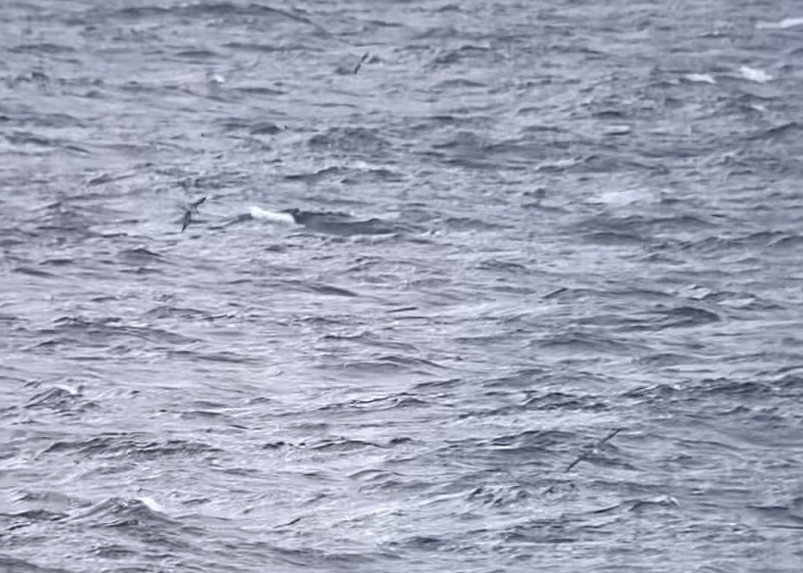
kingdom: Animalia
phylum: Chordata
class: Aves
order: Procellariiformes
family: Procellariidae
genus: Calonectris
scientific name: Calonectris diomedea
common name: Cory's shearwater
